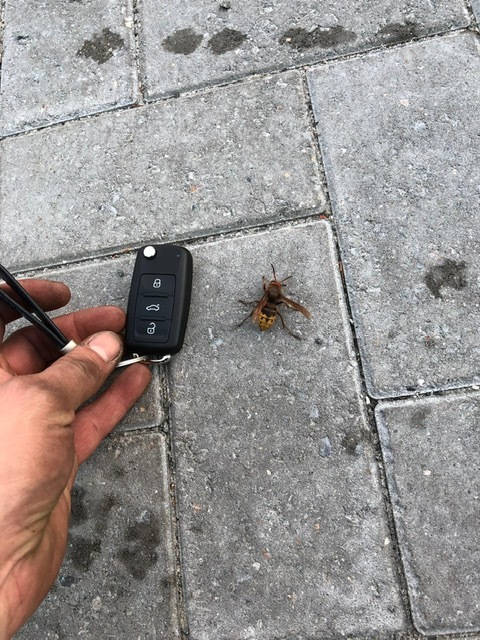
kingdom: Animalia
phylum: Arthropoda
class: Insecta
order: Hymenoptera
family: Vespidae
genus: Vespa
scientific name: Vespa crabro
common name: Hornet
